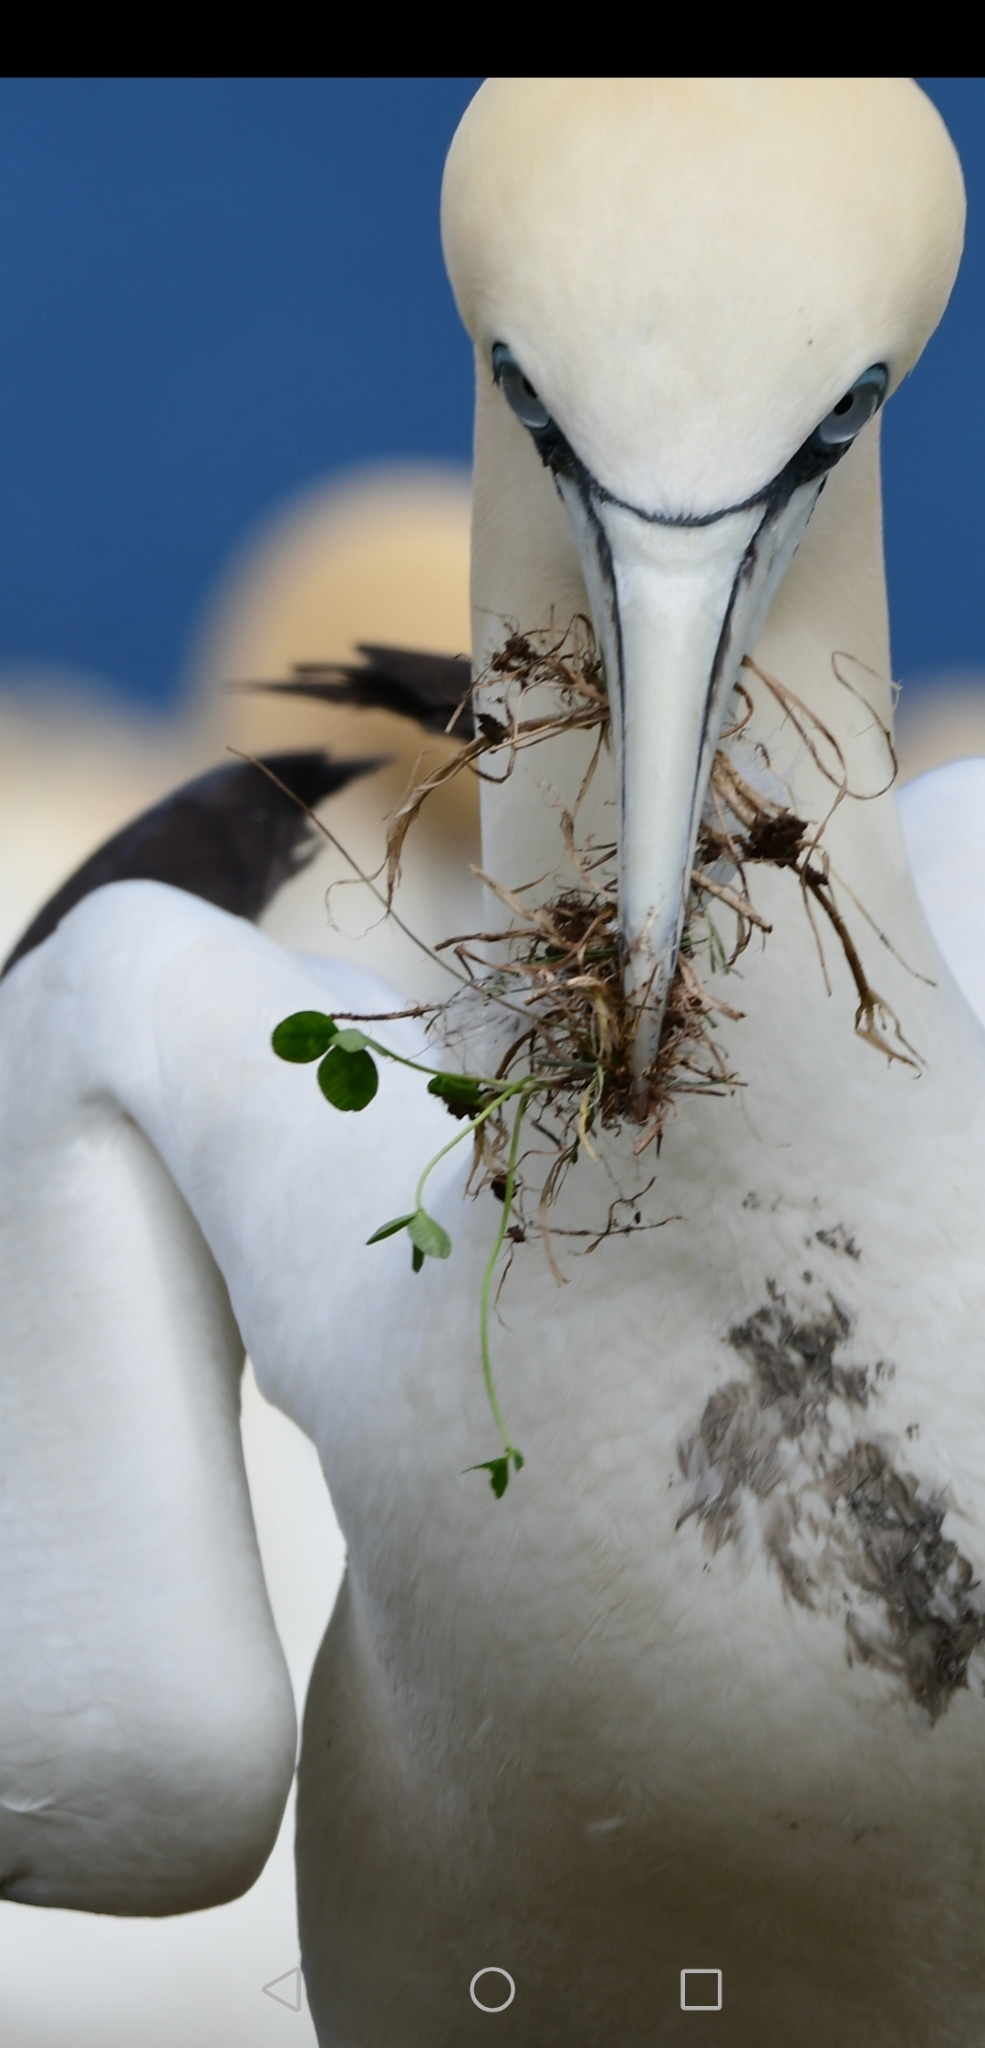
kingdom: Animalia
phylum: Chordata
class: Aves
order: Suliformes
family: Sulidae
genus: Morus
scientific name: Morus bassanus
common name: Northern gannet
